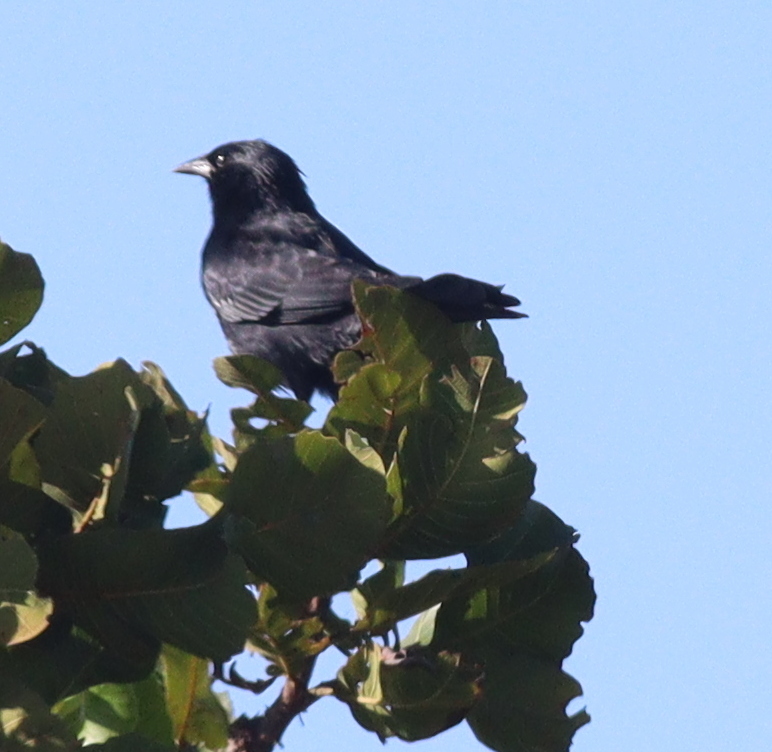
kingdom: Animalia
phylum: Chordata
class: Aves
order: Passeriformes
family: Icteridae
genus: Gnorimopsar
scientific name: Gnorimopsar chopi
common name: Chopi blackbird
